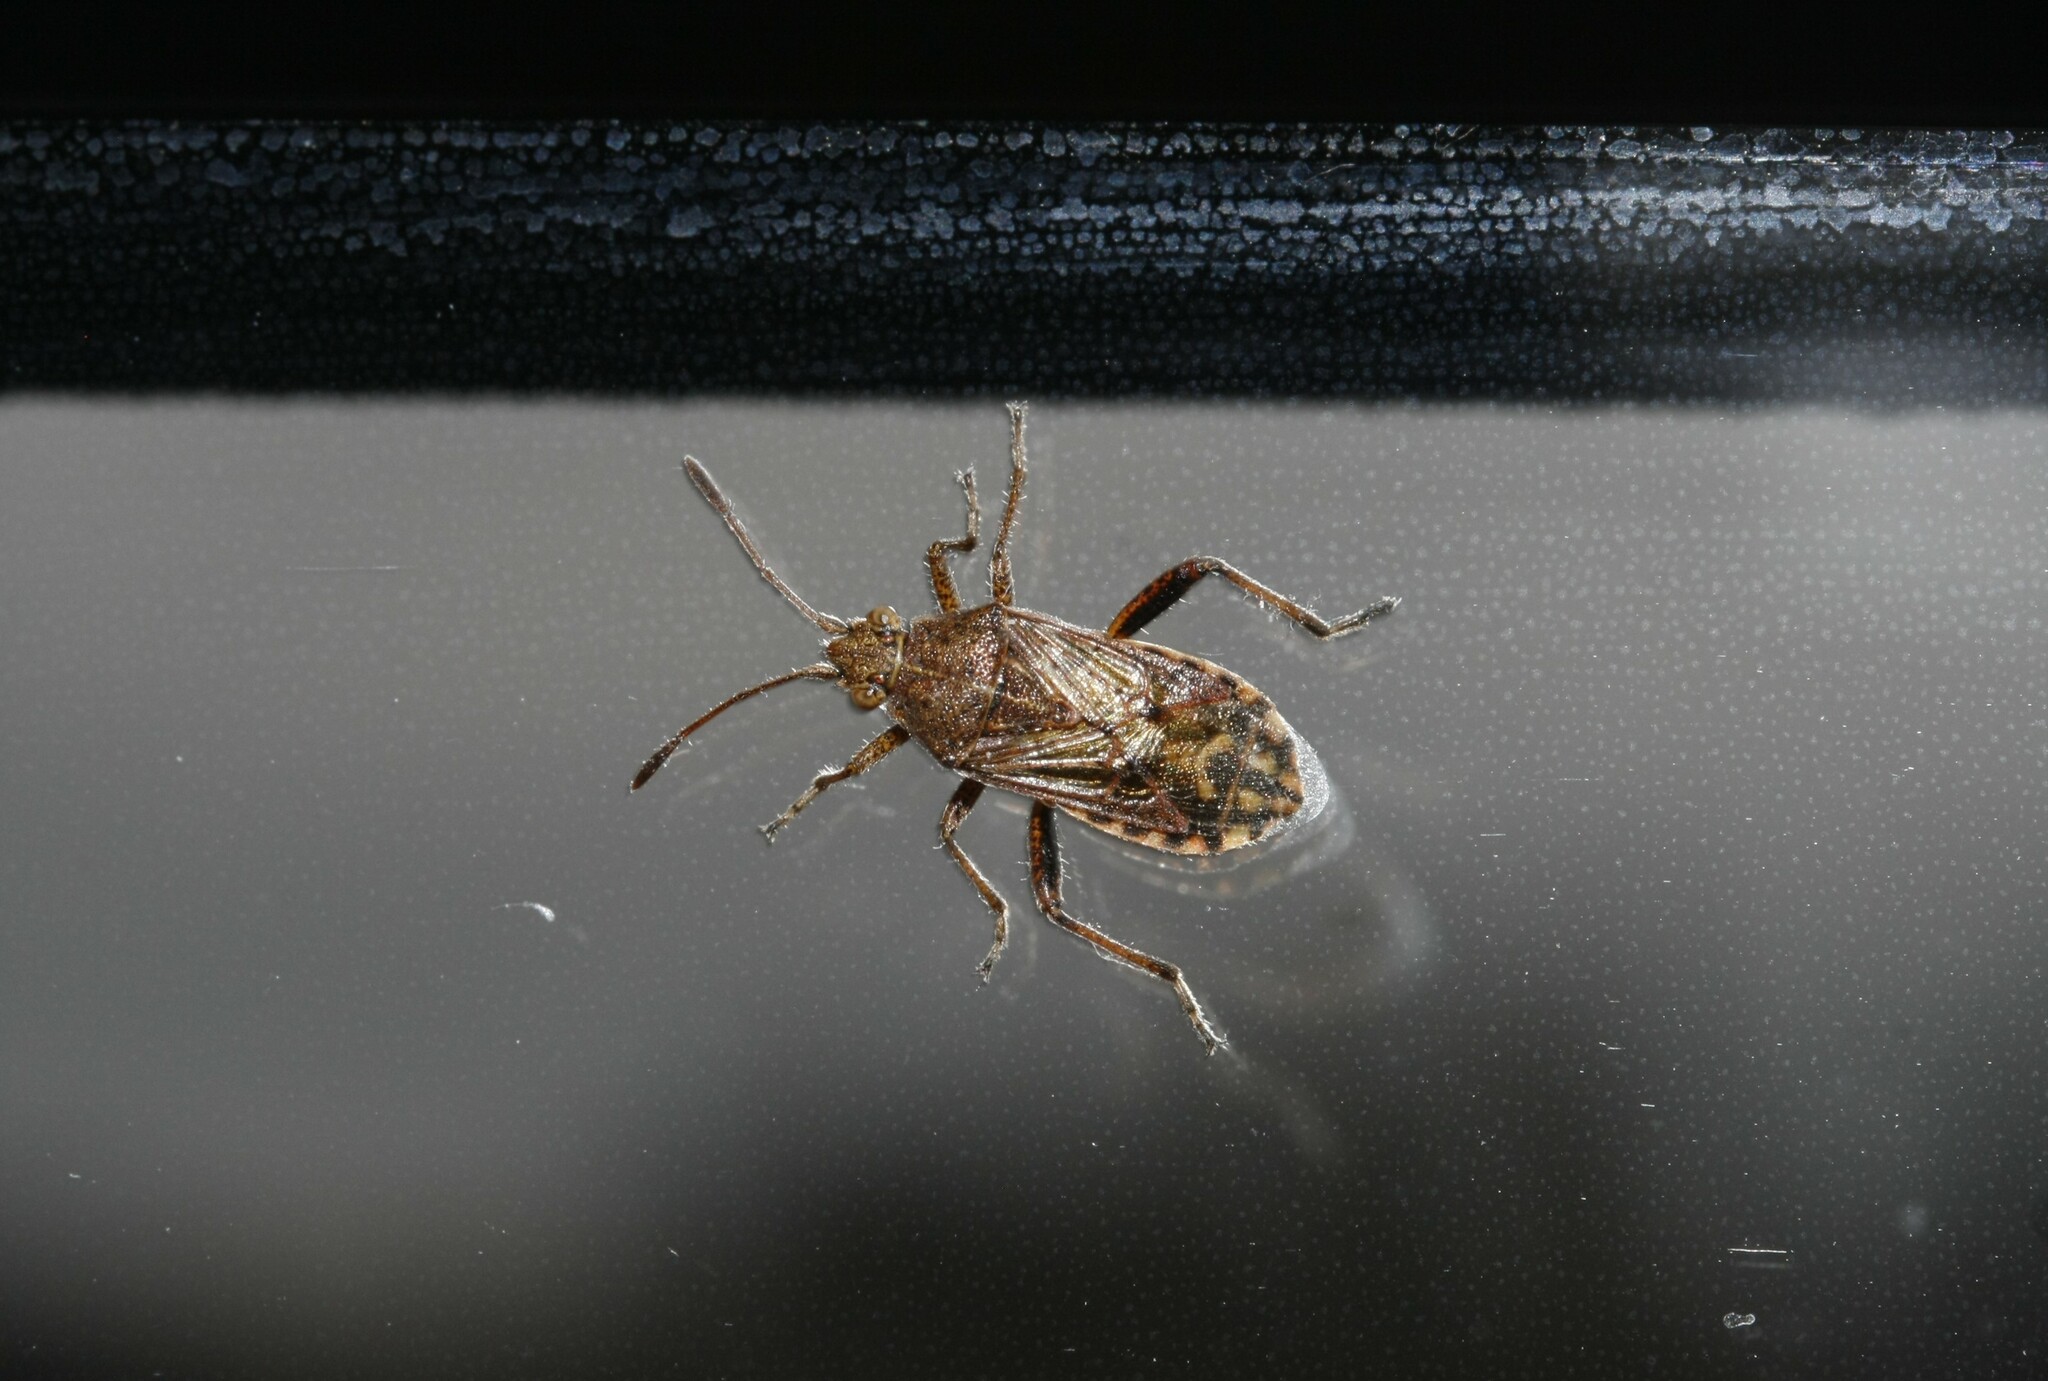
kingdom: Animalia
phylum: Arthropoda
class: Insecta
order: Hemiptera
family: Rhopalidae
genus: Stictopleurus
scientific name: Stictopleurus punctatonervosus
